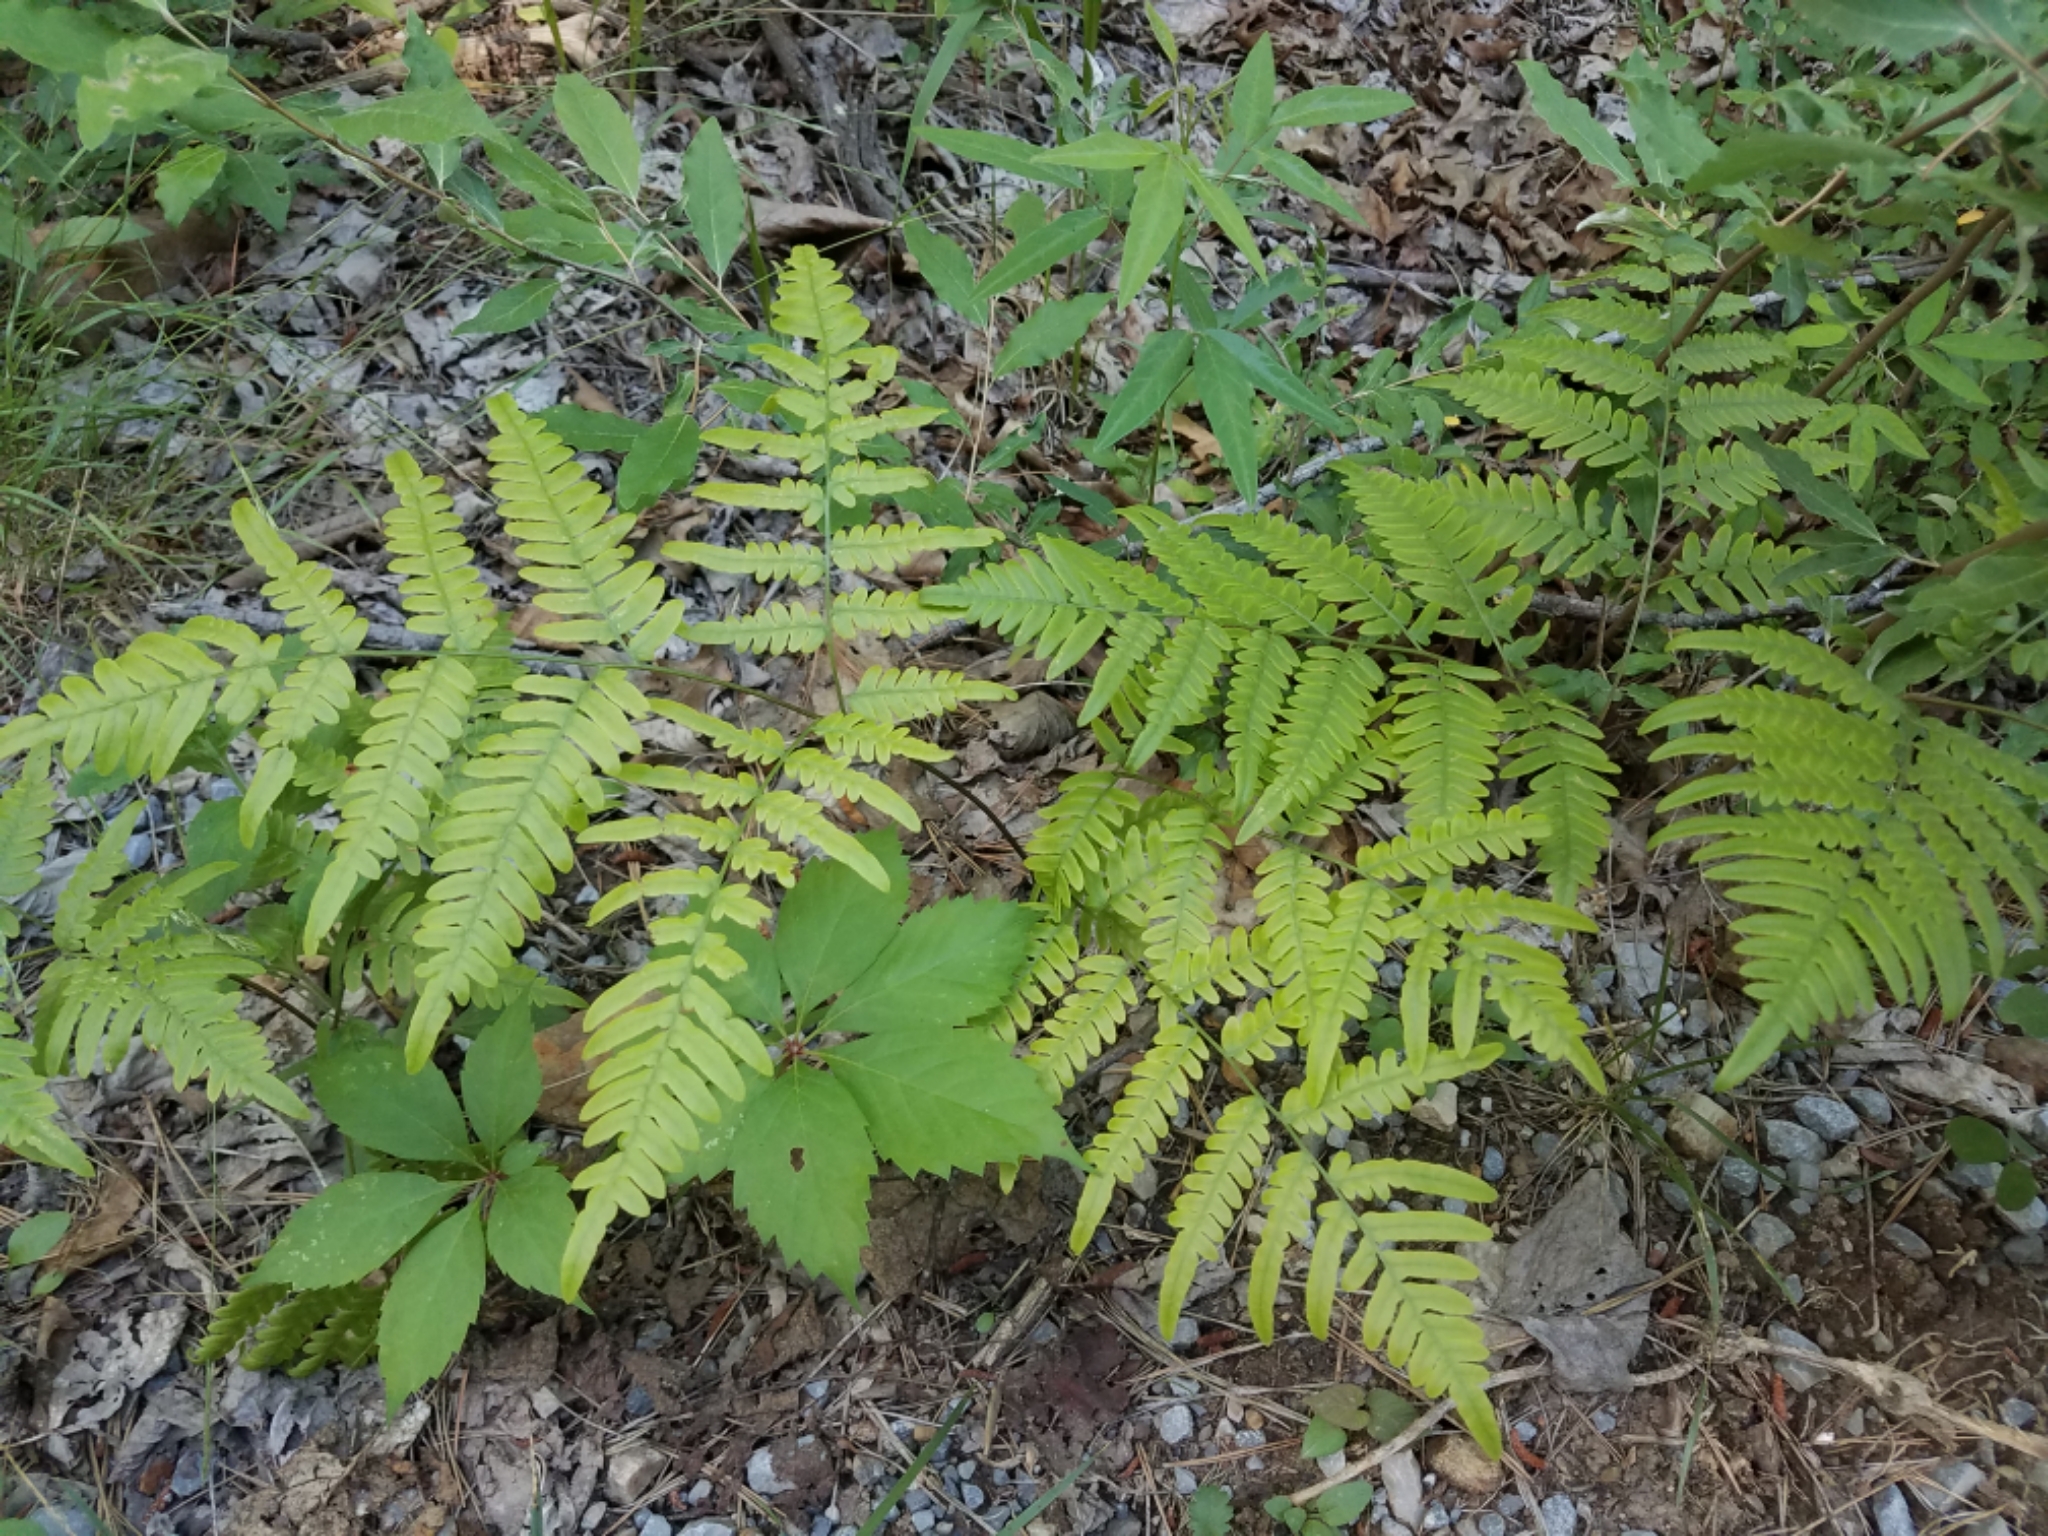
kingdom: Plantae
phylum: Tracheophyta
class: Polypodiopsida
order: Polypodiales
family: Dennstaedtiaceae
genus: Pteridium
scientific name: Pteridium aquilinum
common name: Bracken
